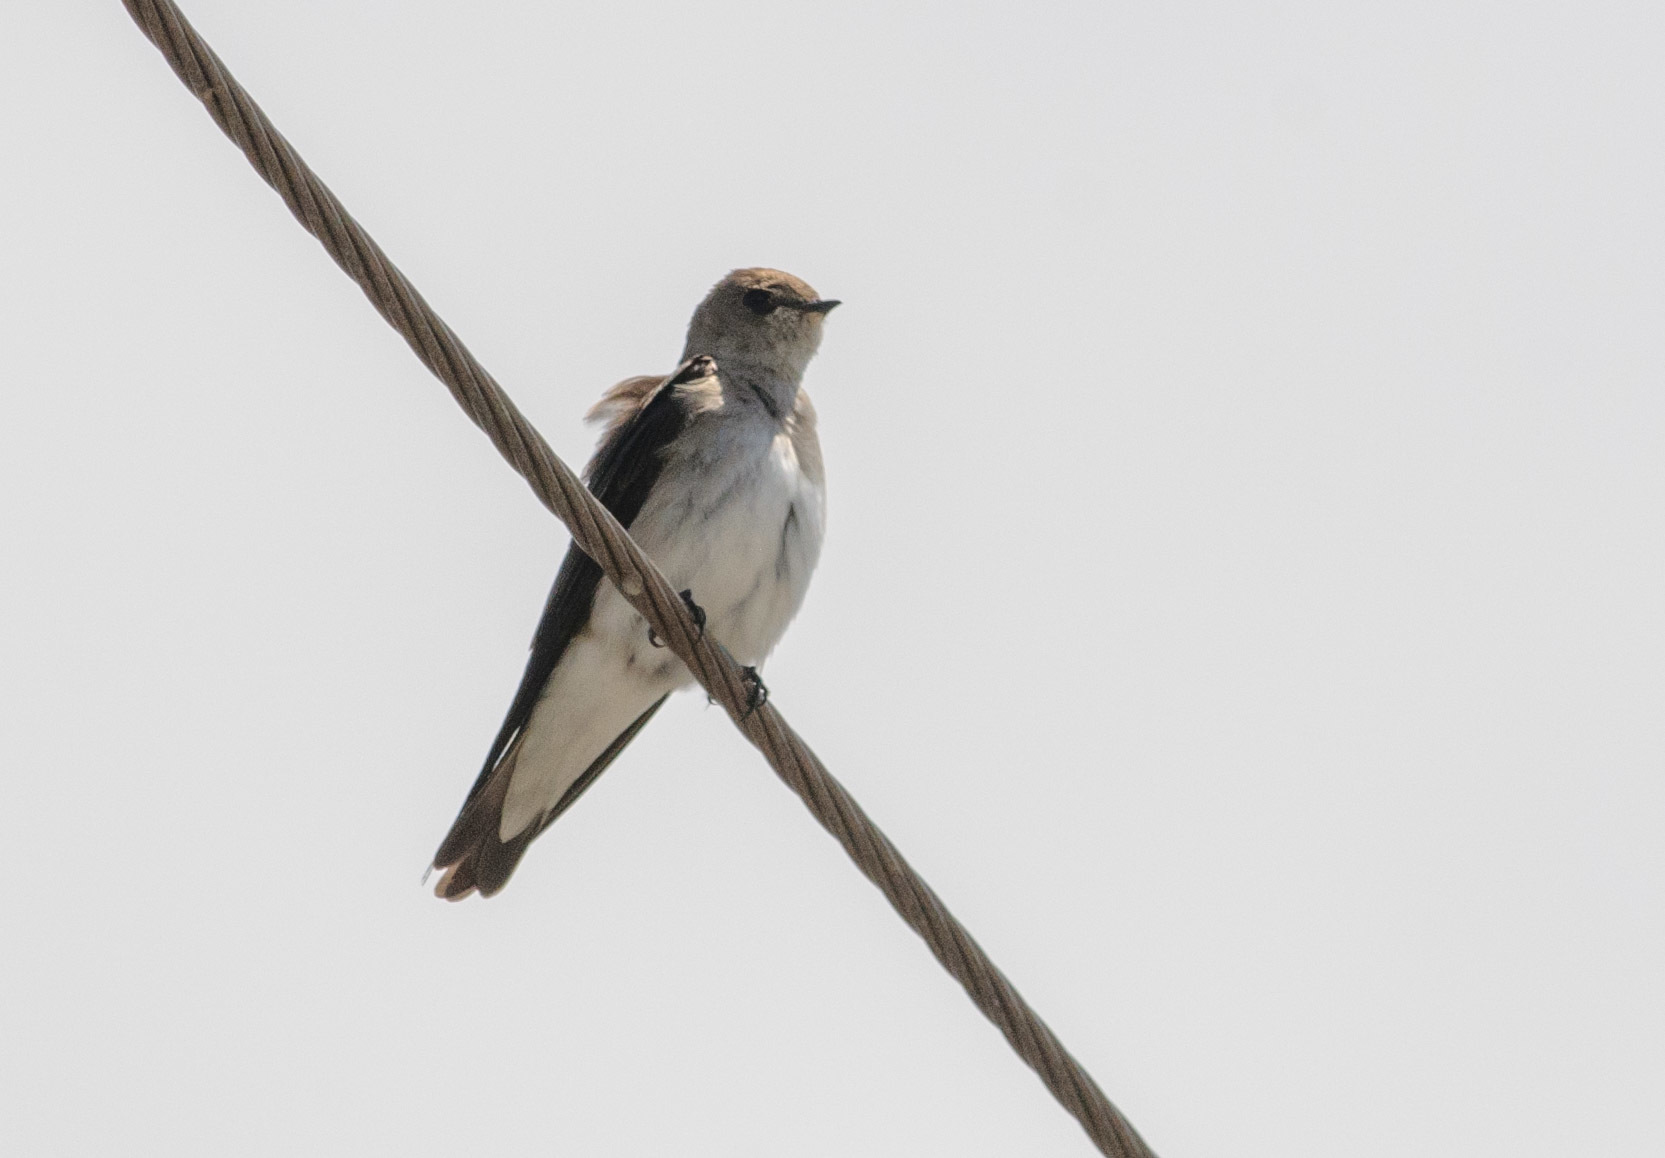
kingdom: Animalia
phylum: Chordata
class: Aves
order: Passeriformes
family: Hirundinidae
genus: Stelgidopteryx
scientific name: Stelgidopteryx serripennis
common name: Northern rough-winged swallow
